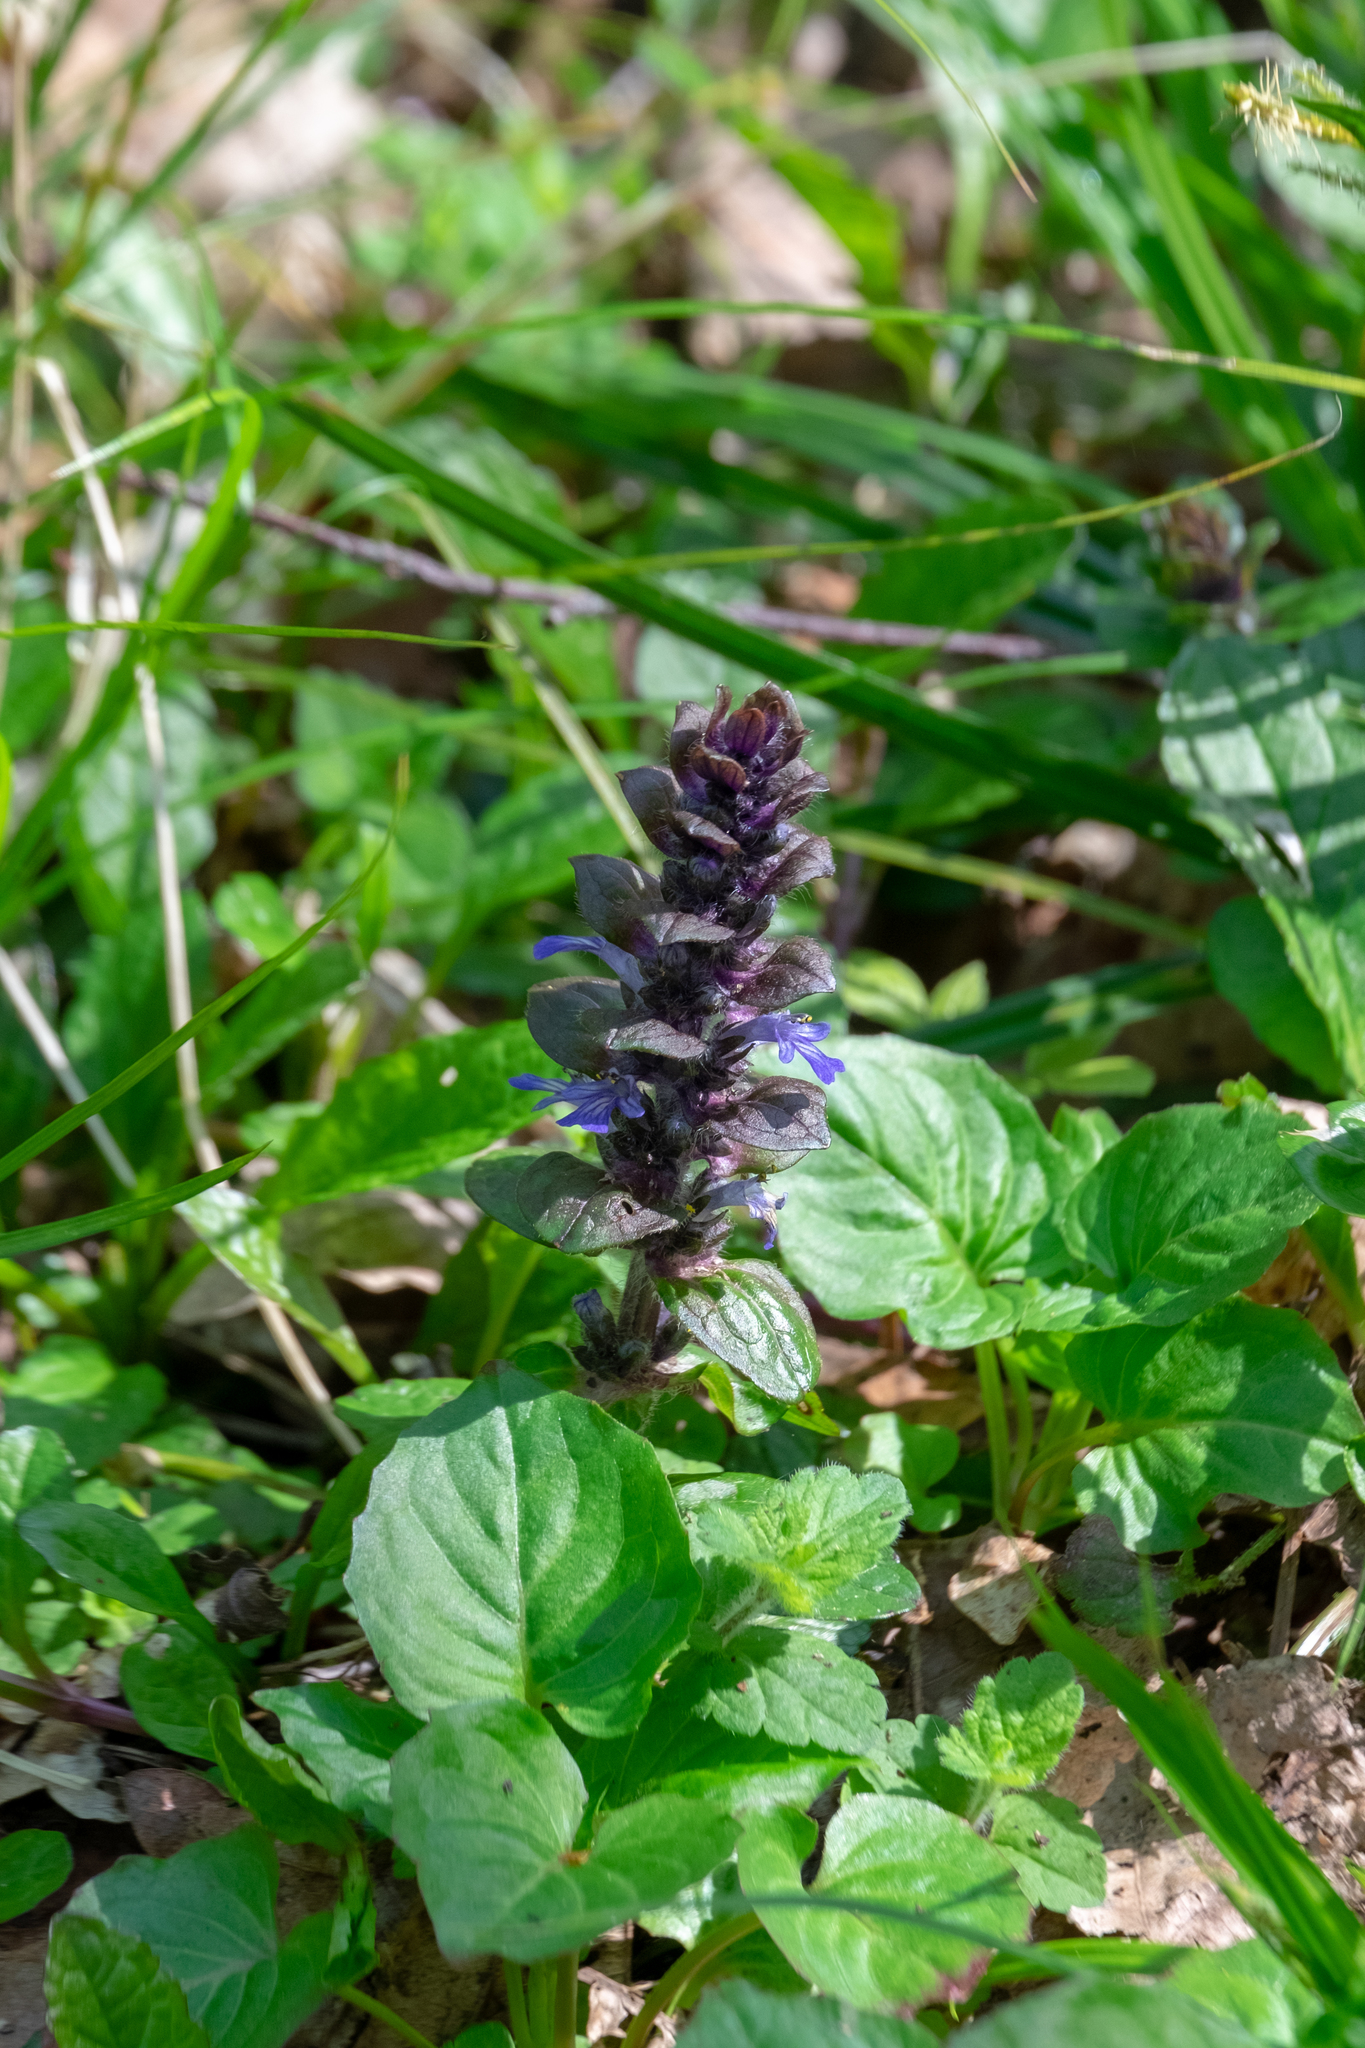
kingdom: Plantae
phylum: Tracheophyta
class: Magnoliopsida
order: Lamiales
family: Lamiaceae
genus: Ajuga
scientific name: Ajuga reptans
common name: Bugle
